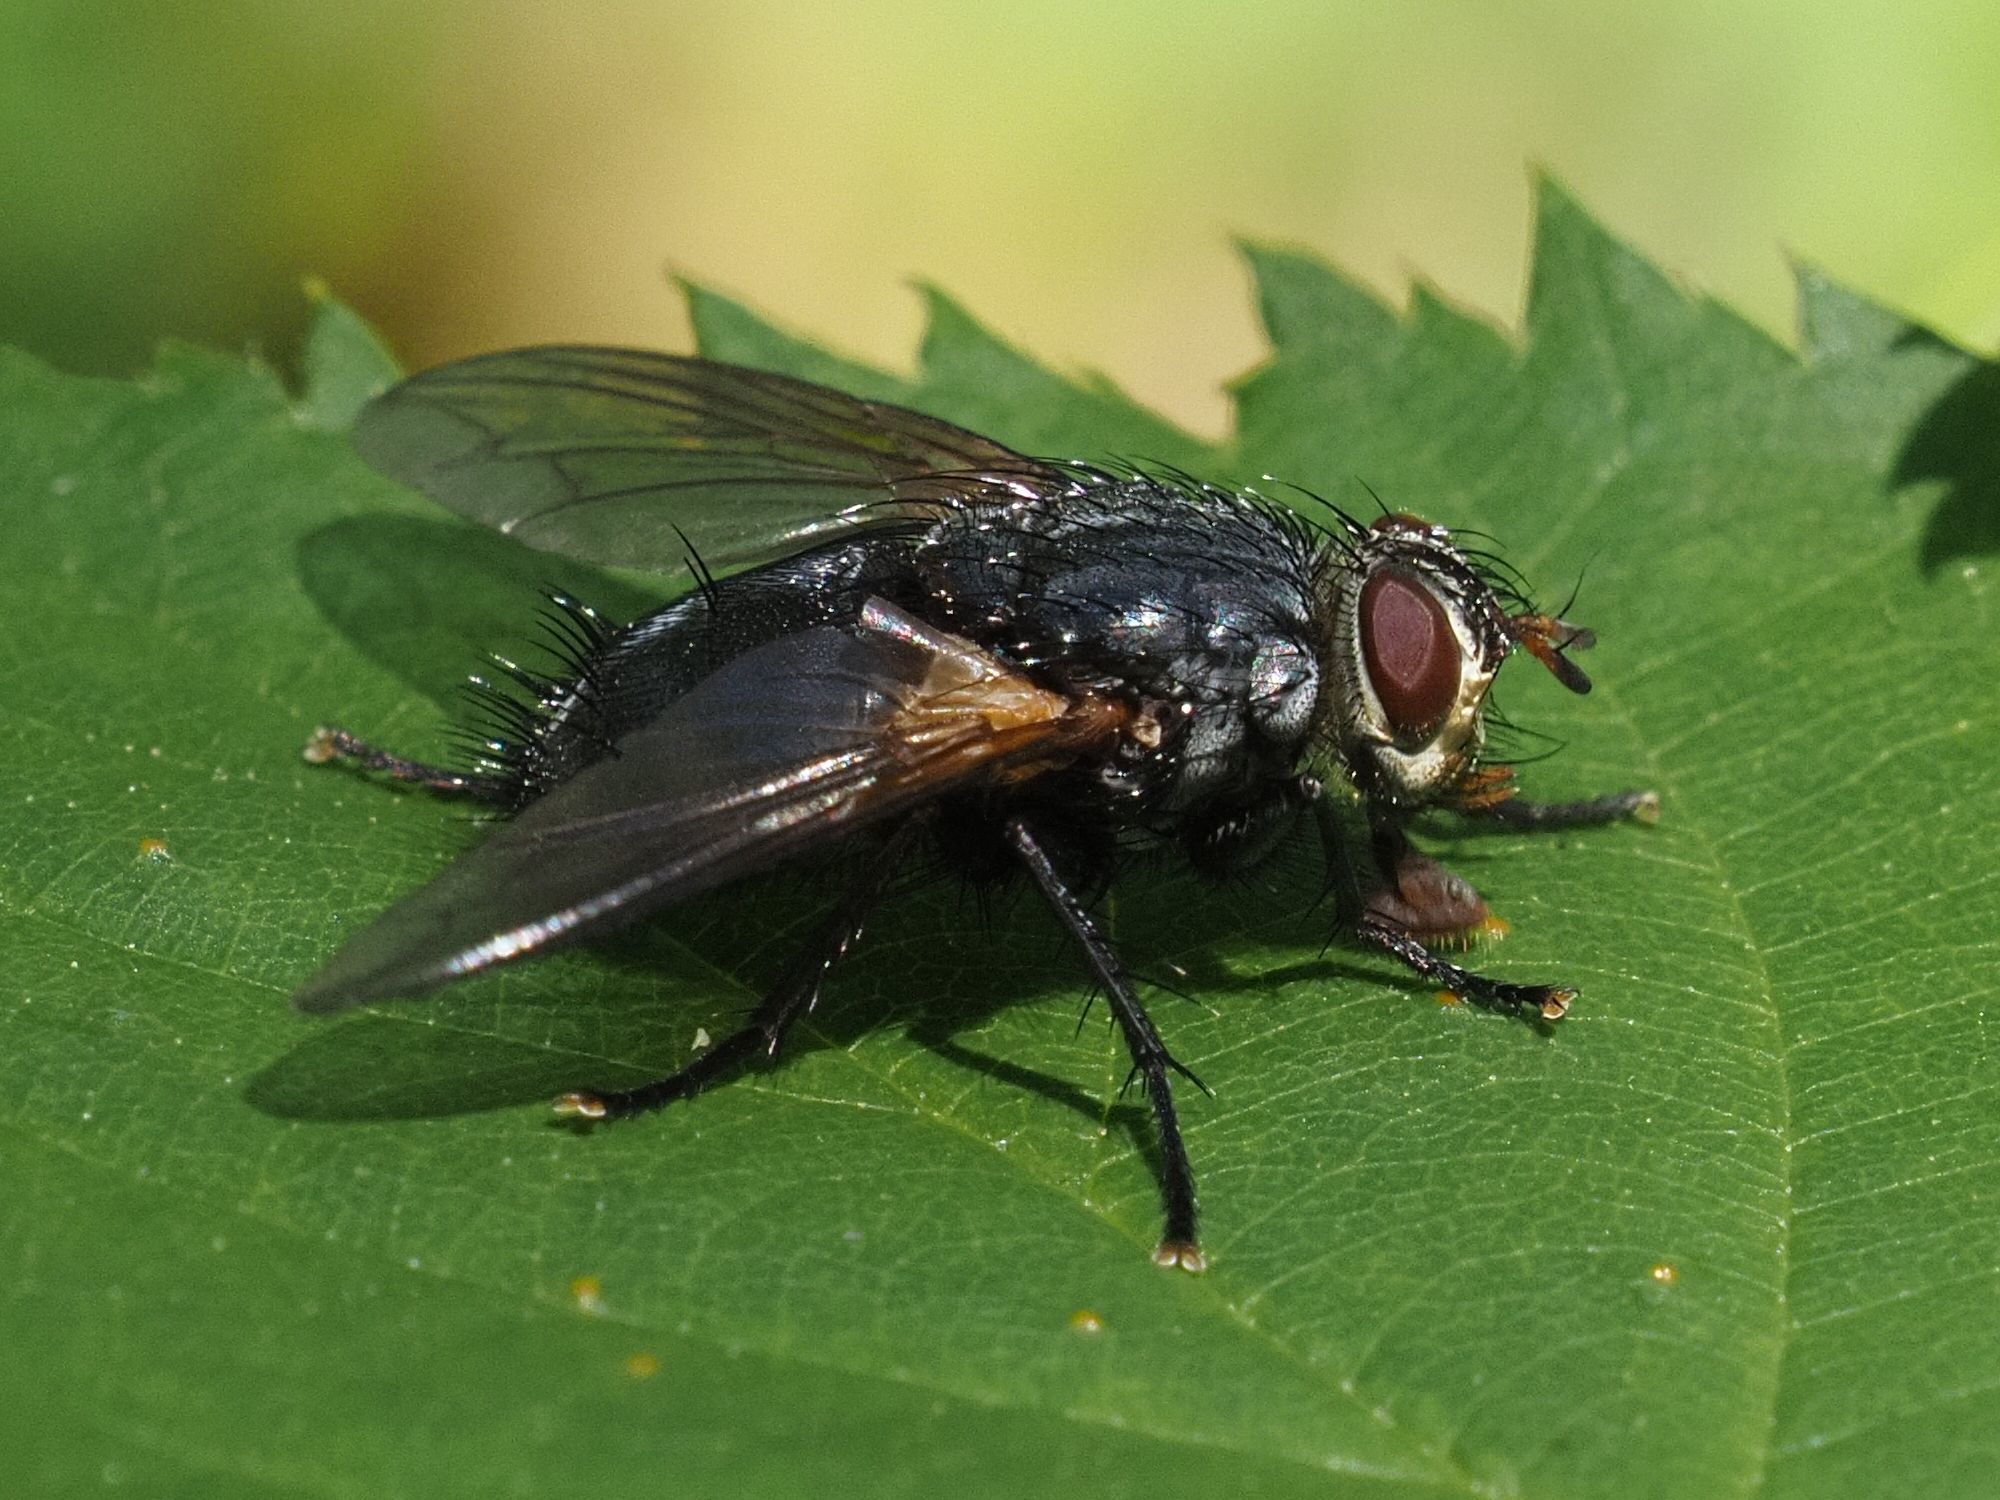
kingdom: Animalia
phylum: Arthropoda
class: Insecta
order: Diptera
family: Tachinidae
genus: Nemoraea
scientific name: Nemoraea pellucida
